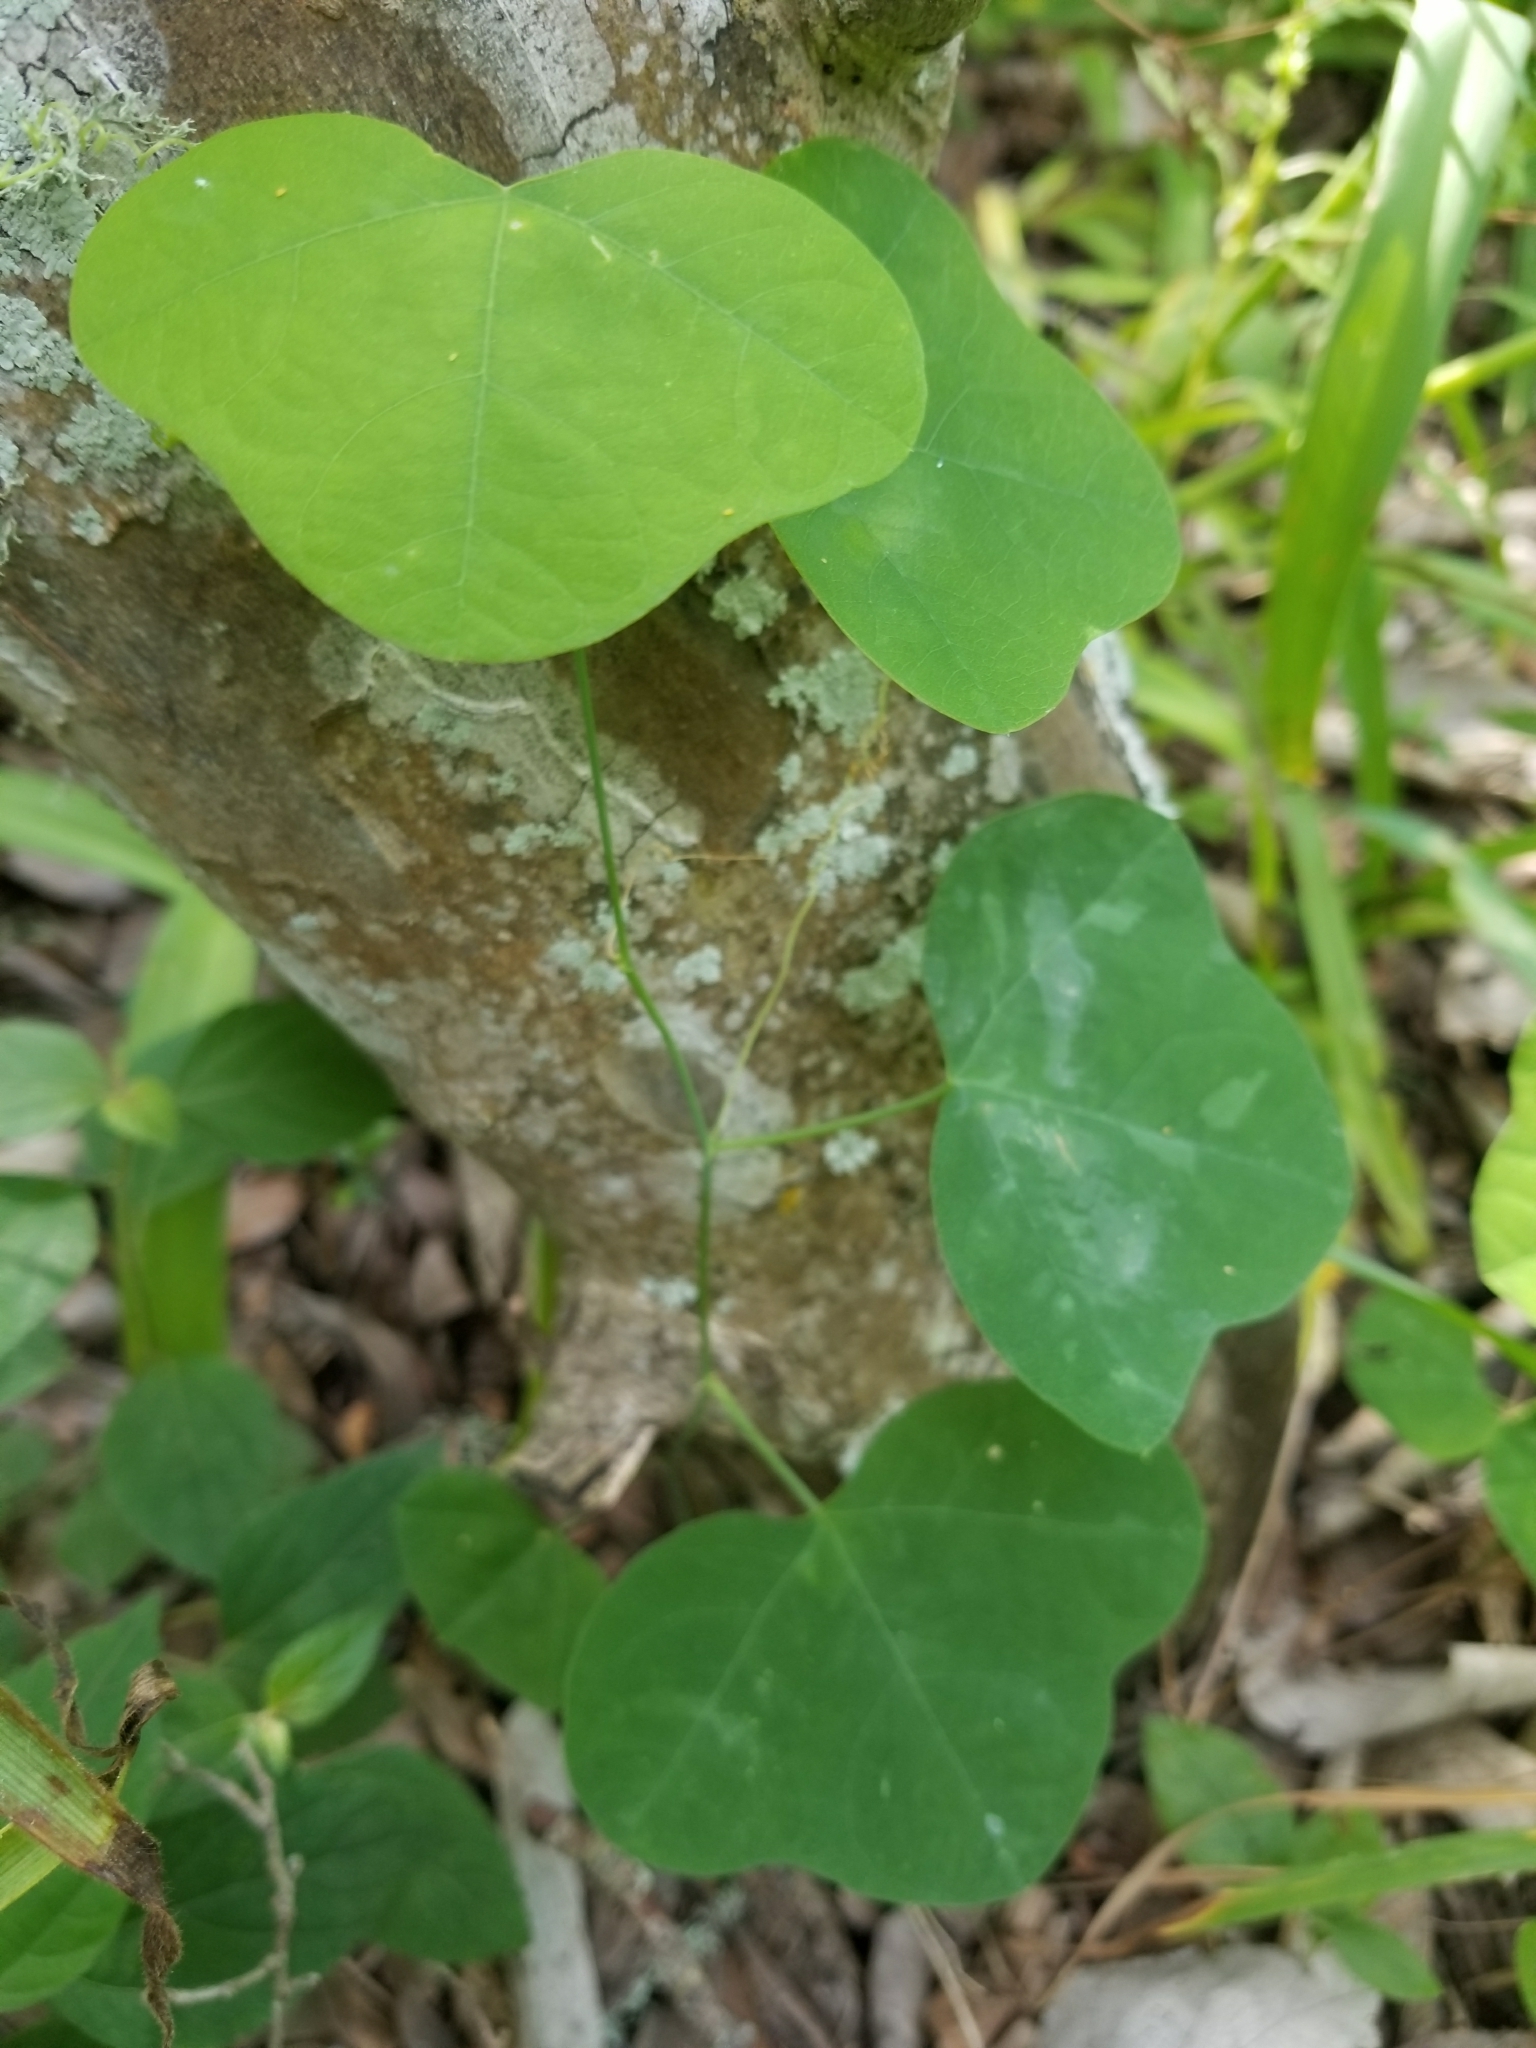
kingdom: Plantae
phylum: Tracheophyta
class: Magnoliopsida
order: Malpighiales
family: Passifloraceae
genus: Passiflora
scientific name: Passiflora lutea
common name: Yellow passionflower
